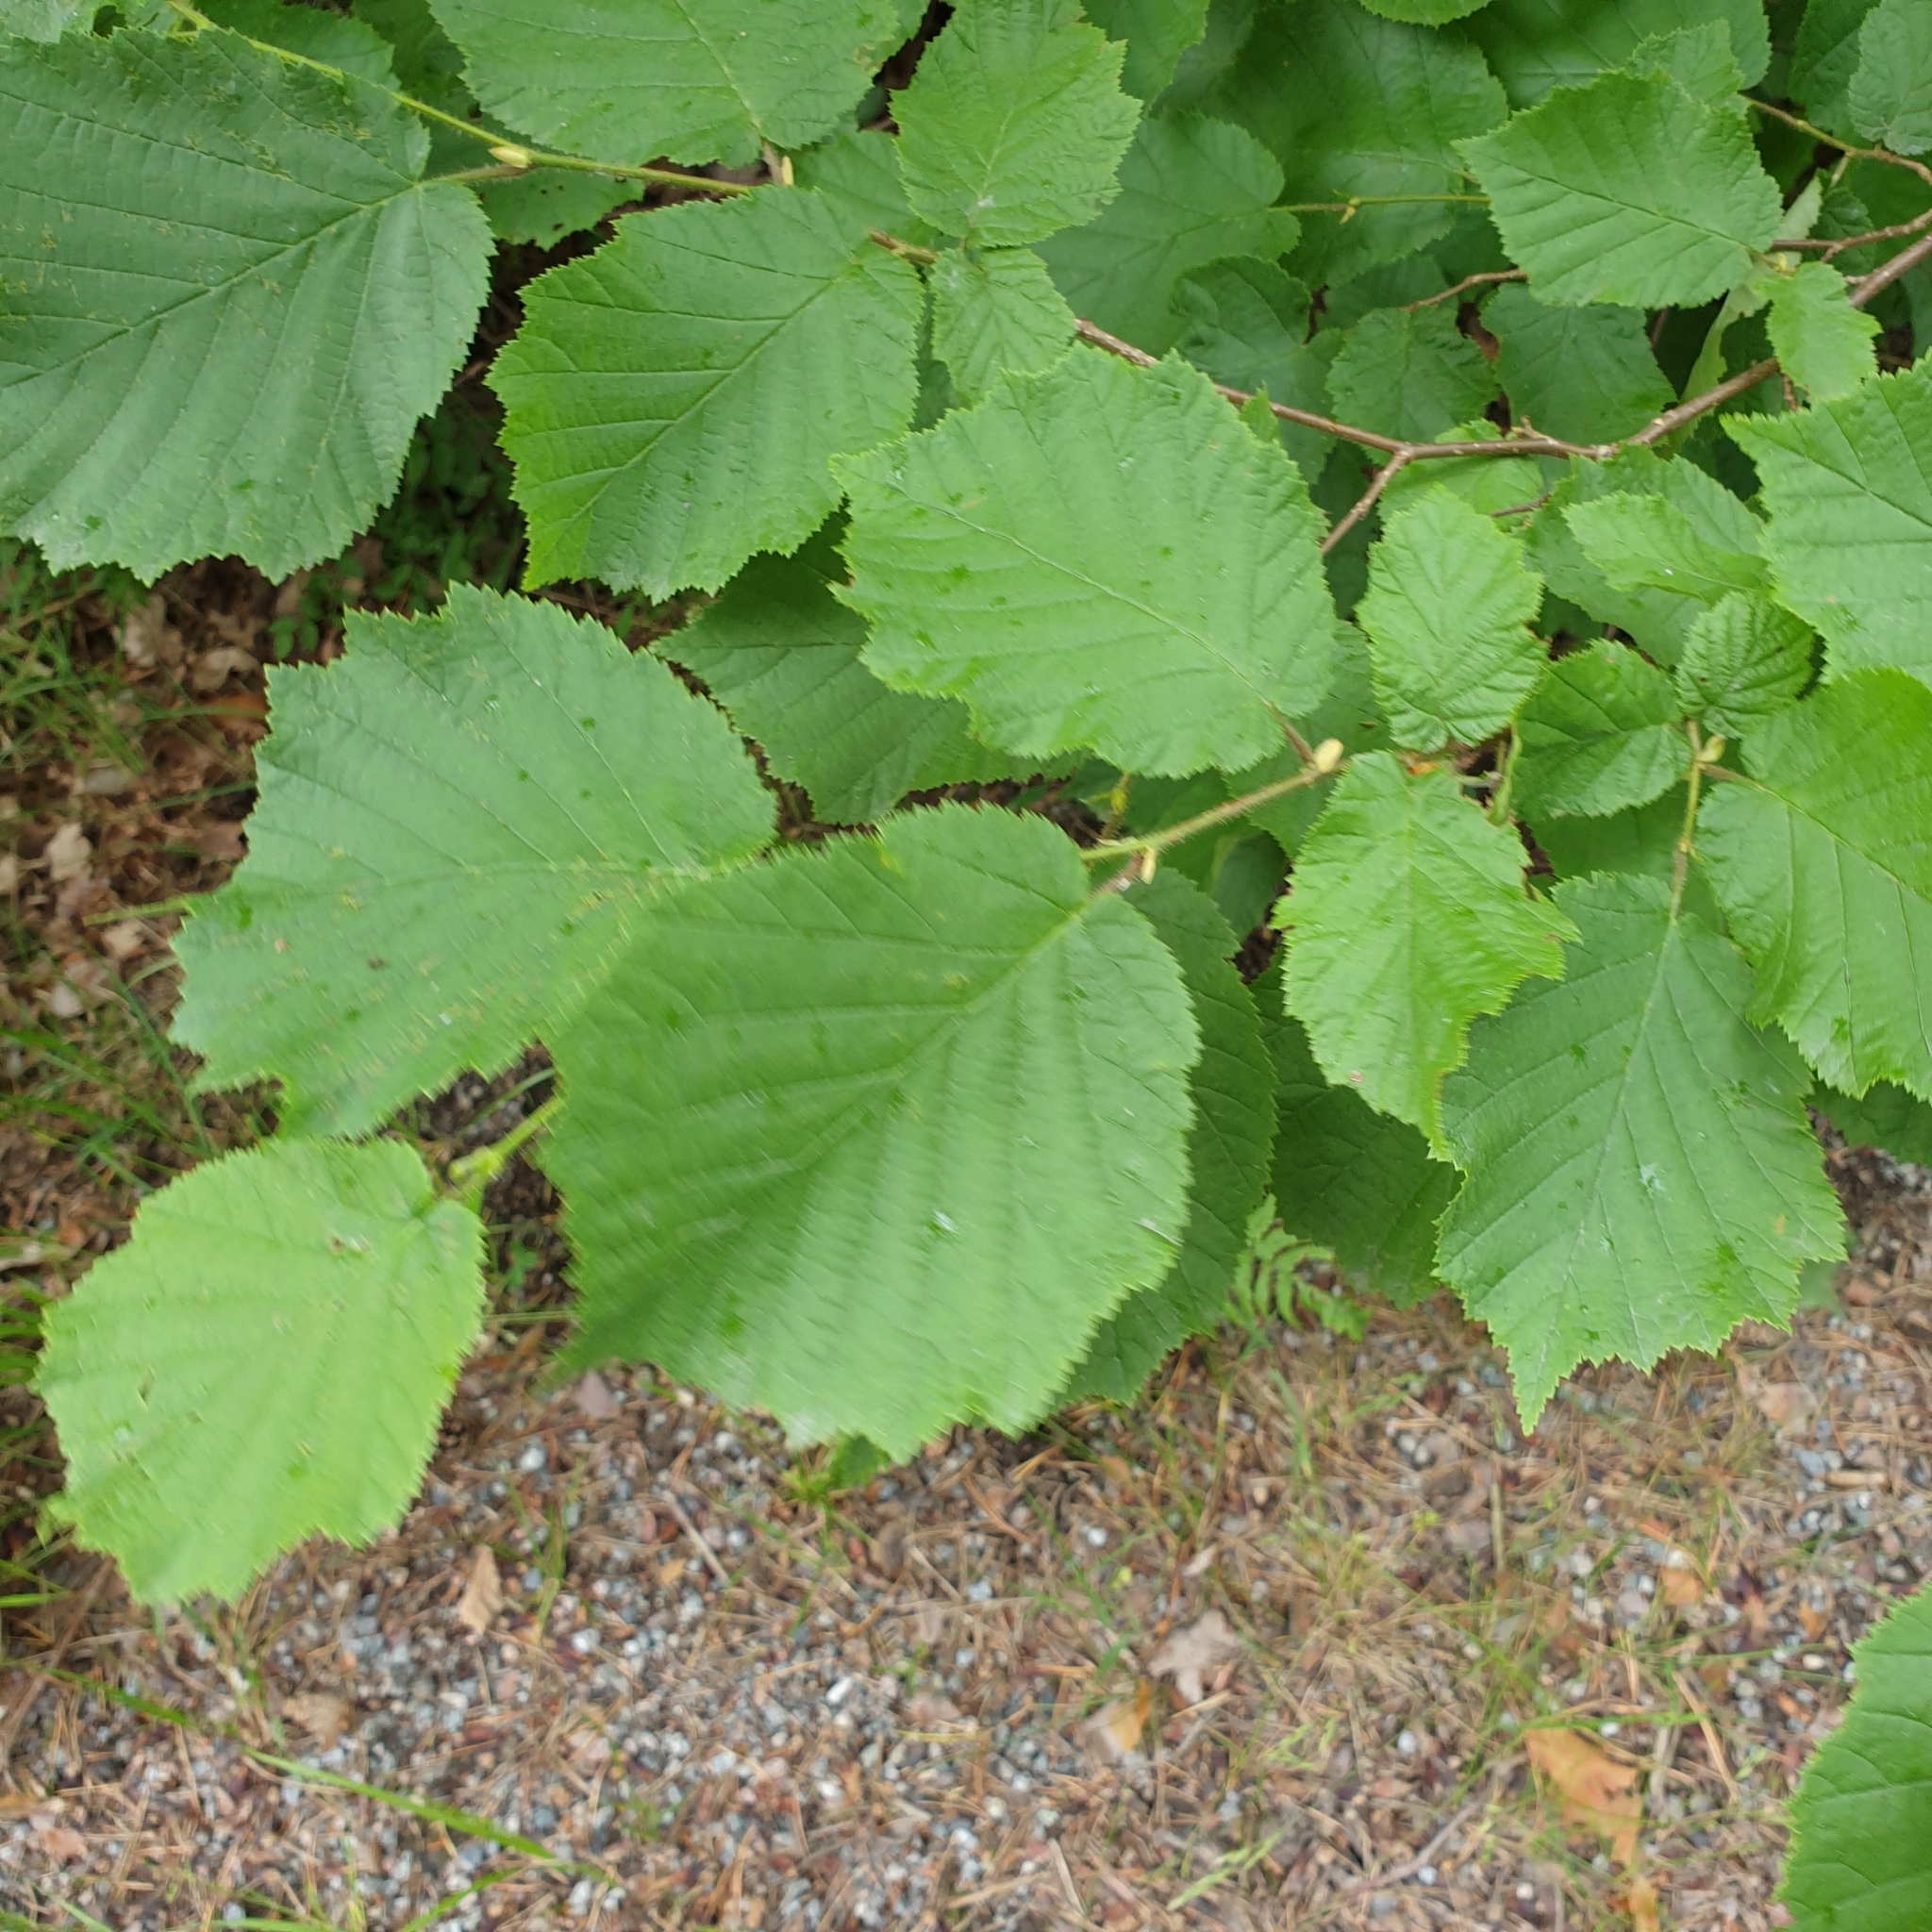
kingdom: Plantae
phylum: Tracheophyta
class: Magnoliopsida
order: Fagales
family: Betulaceae
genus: Corylus
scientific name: Corylus avellana
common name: European hazel
